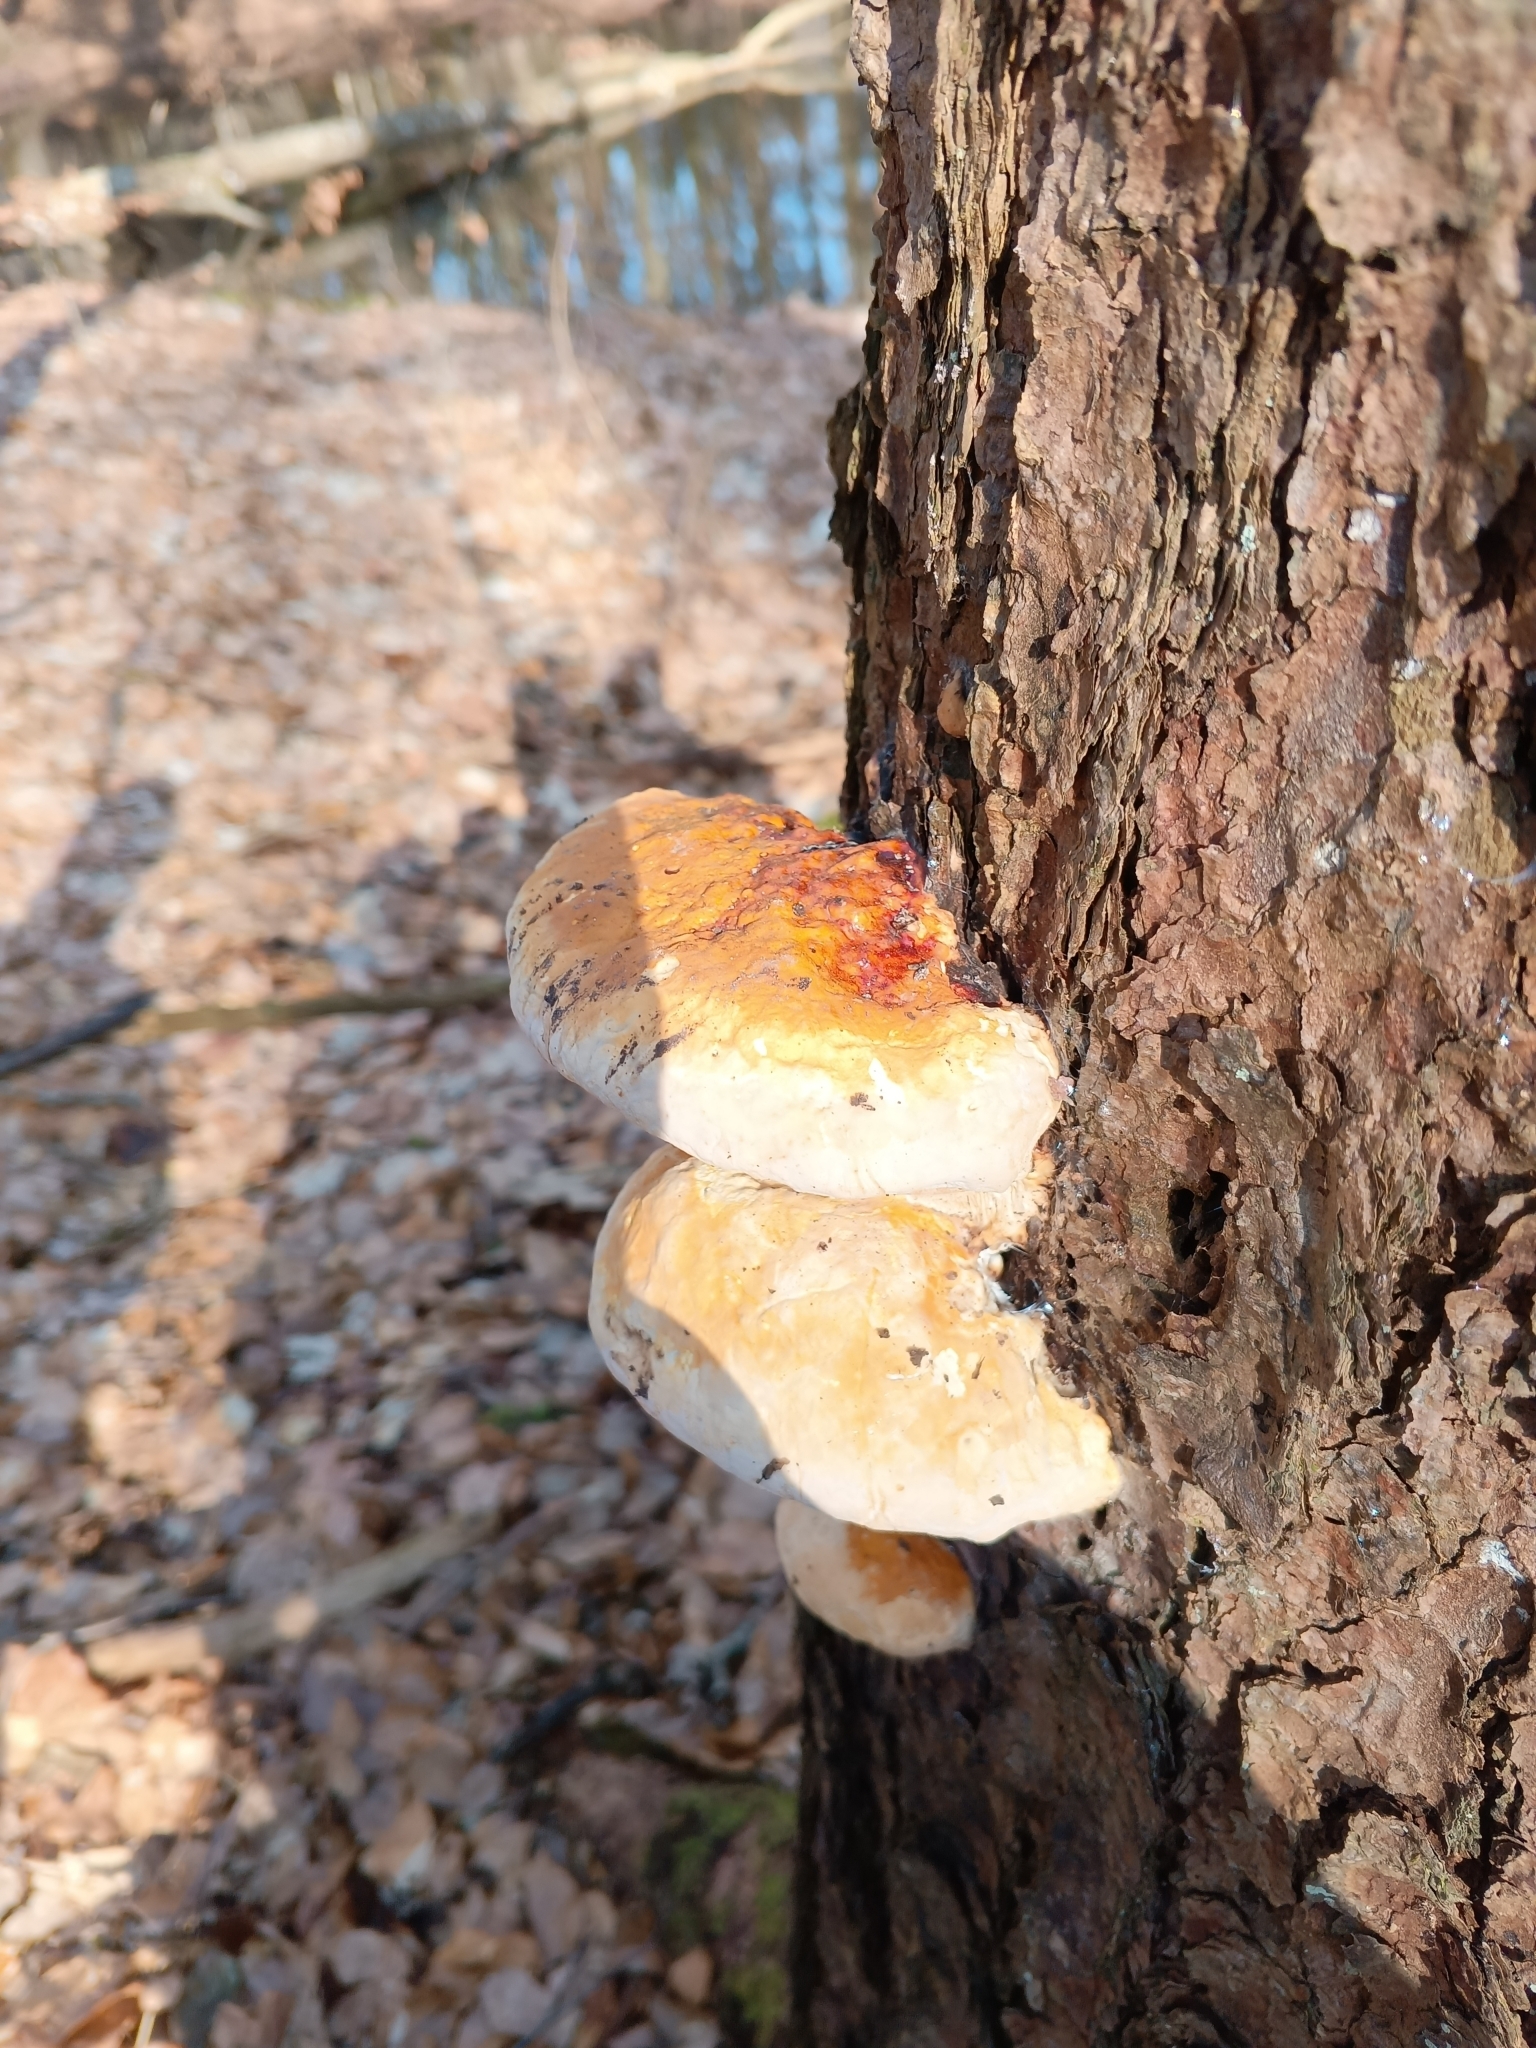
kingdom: Fungi
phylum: Basidiomycota
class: Agaricomycetes
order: Polyporales
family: Fomitopsidaceae
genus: Fomitopsis
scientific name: Fomitopsis pinicola
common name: Red-belted bracket
